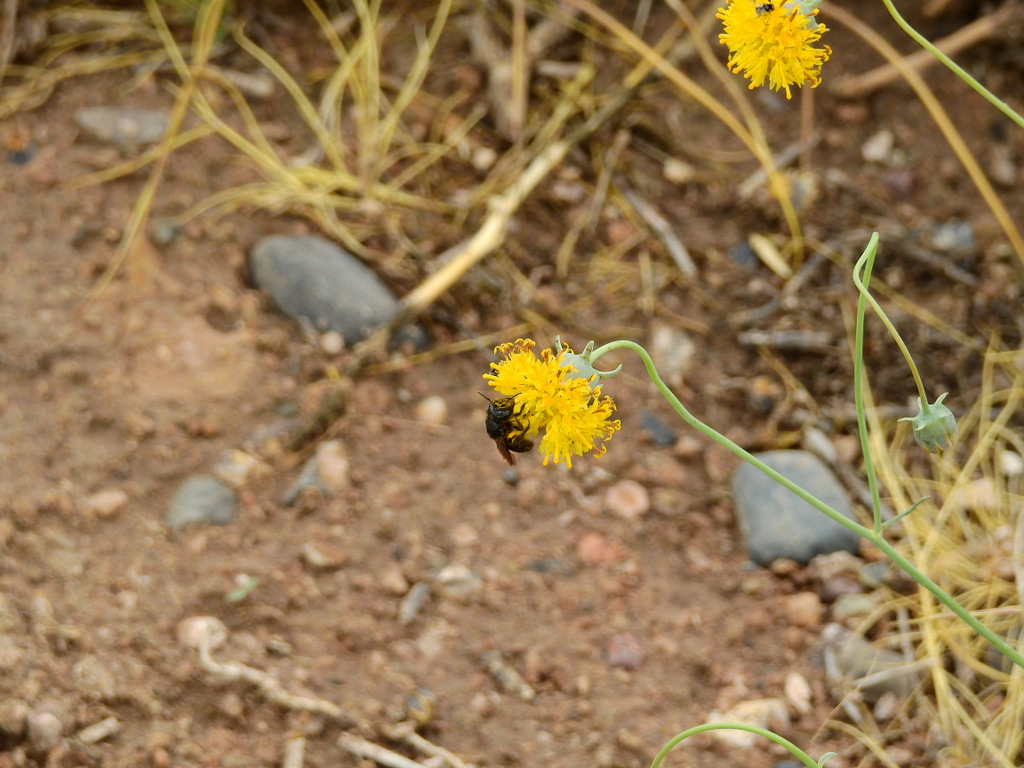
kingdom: Plantae
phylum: Tracheophyta
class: Magnoliopsida
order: Asterales
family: Asteraceae
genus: Thelesperma
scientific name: Thelesperma megapotamicum
